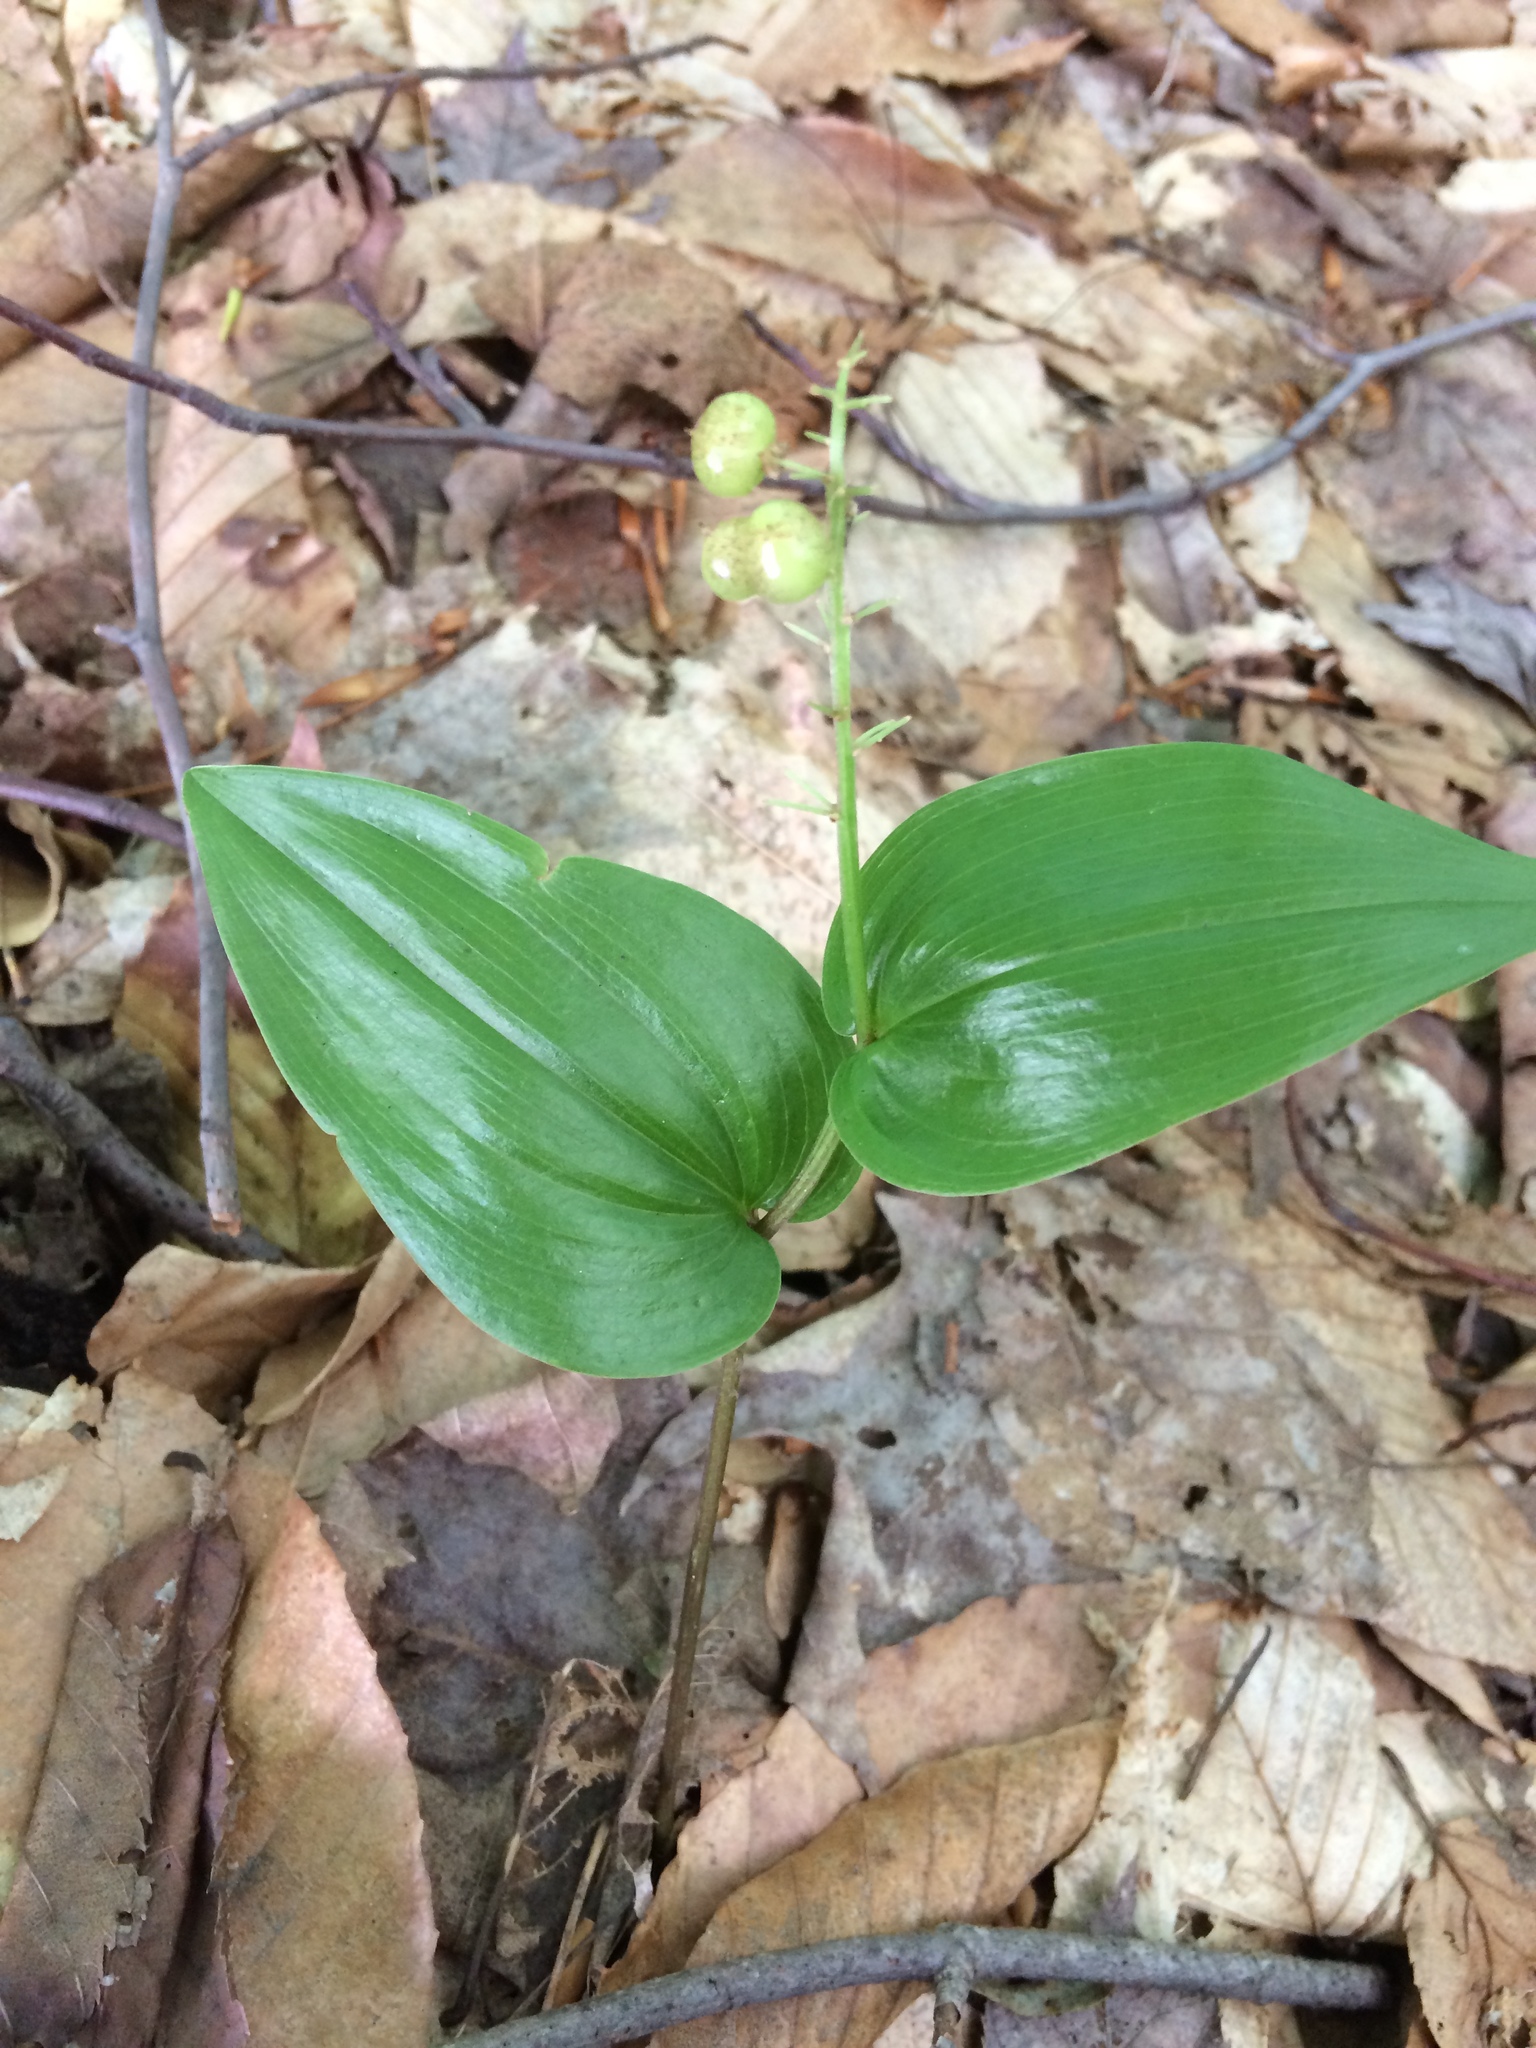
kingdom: Plantae
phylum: Tracheophyta
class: Liliopsida
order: Asparagales
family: Asparagaceae
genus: Maianthemum
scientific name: Maianthemum canadense
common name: False lily-of-the-valley
